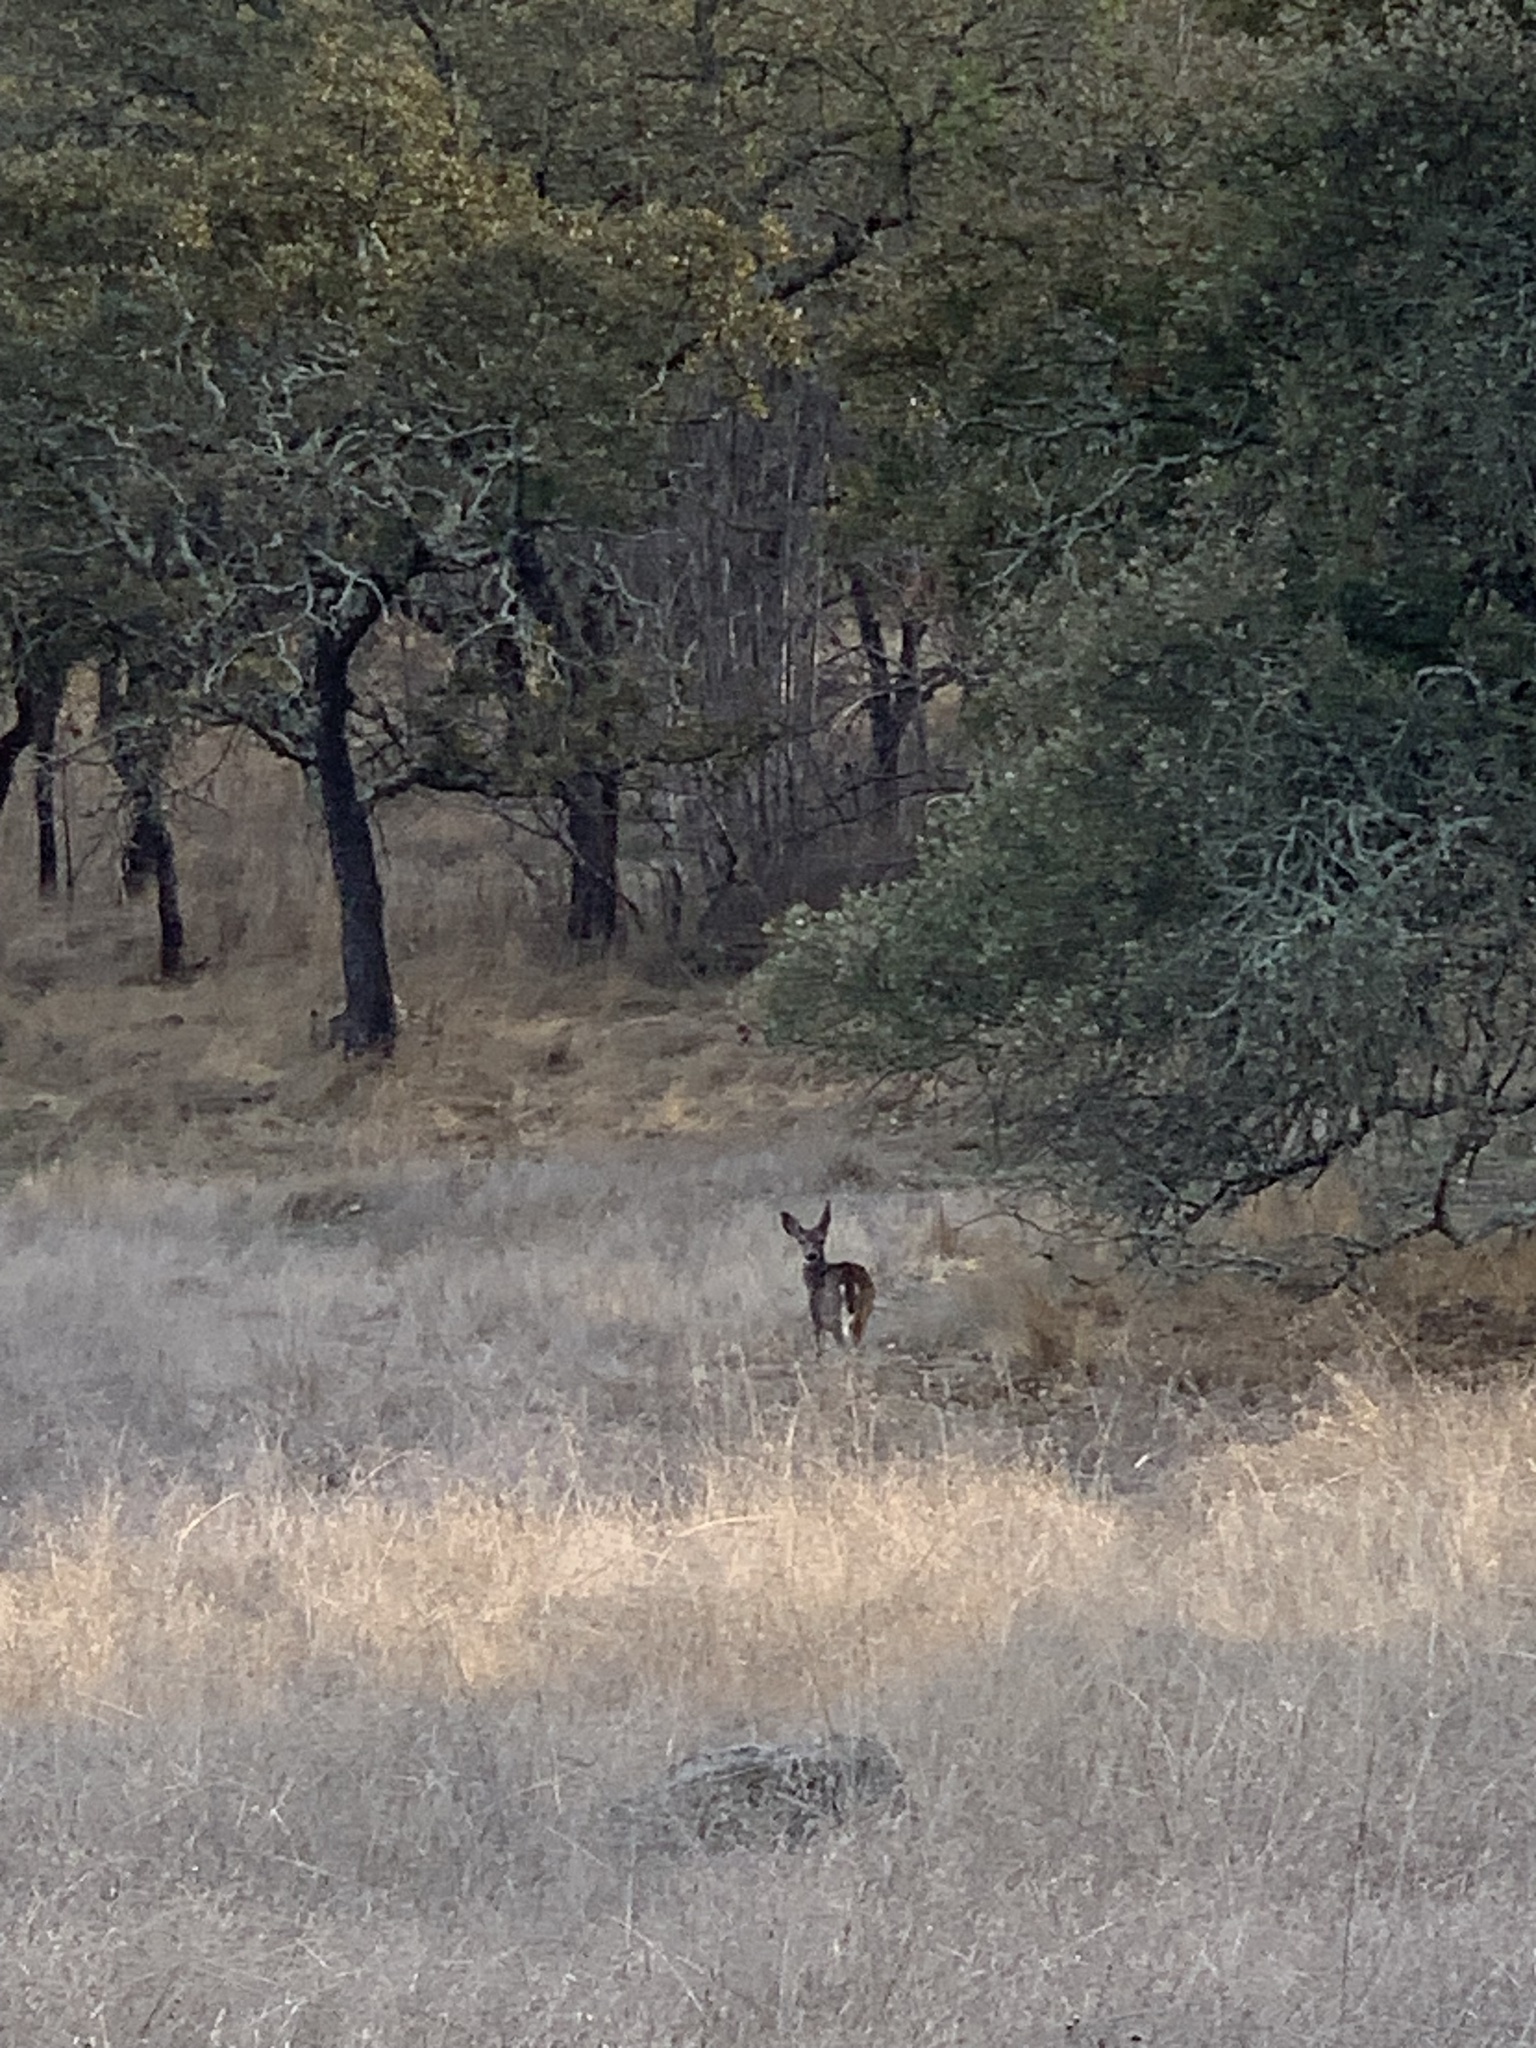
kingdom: Animalia
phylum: Chordata
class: Mammalia
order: Artiodactyla
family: Cervidae
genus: Odocoileus
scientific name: Odocoileus hemionus
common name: Mule deer
